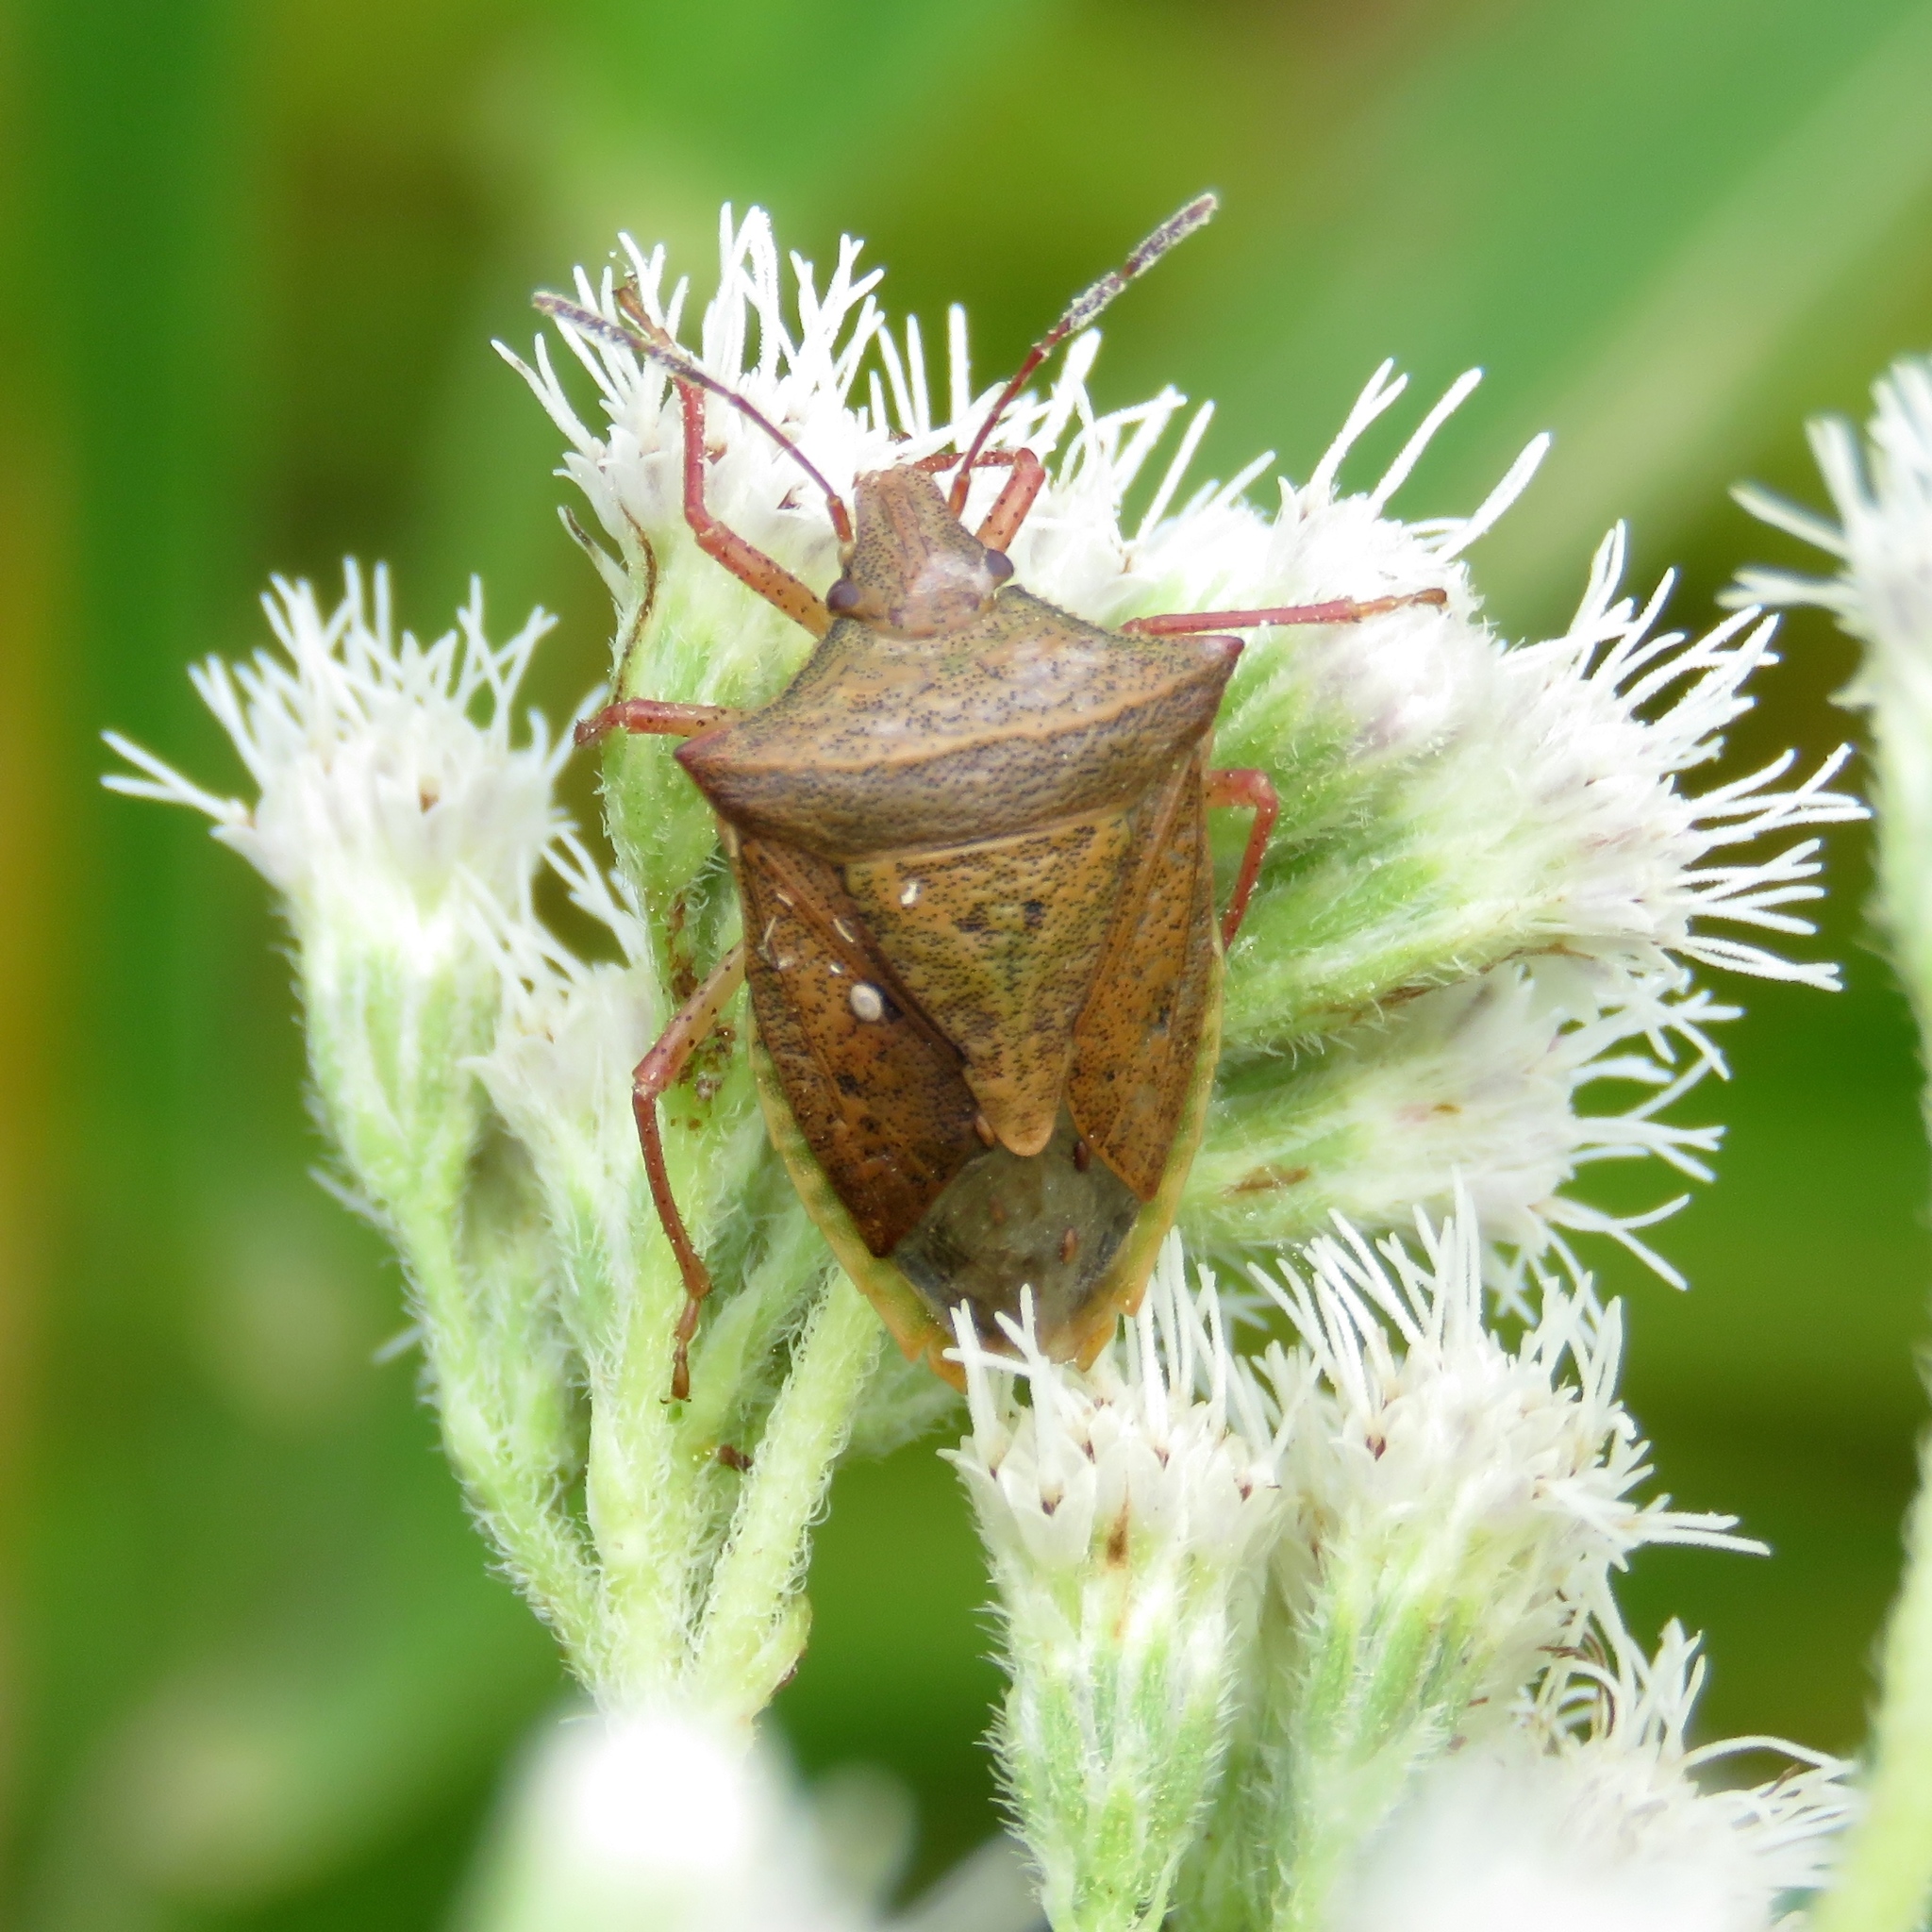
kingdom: Animalia
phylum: Arthropoda
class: Insecta
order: Hemiptera
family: Pentatomidae
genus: Euschistus
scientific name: Euschistus ictericus
